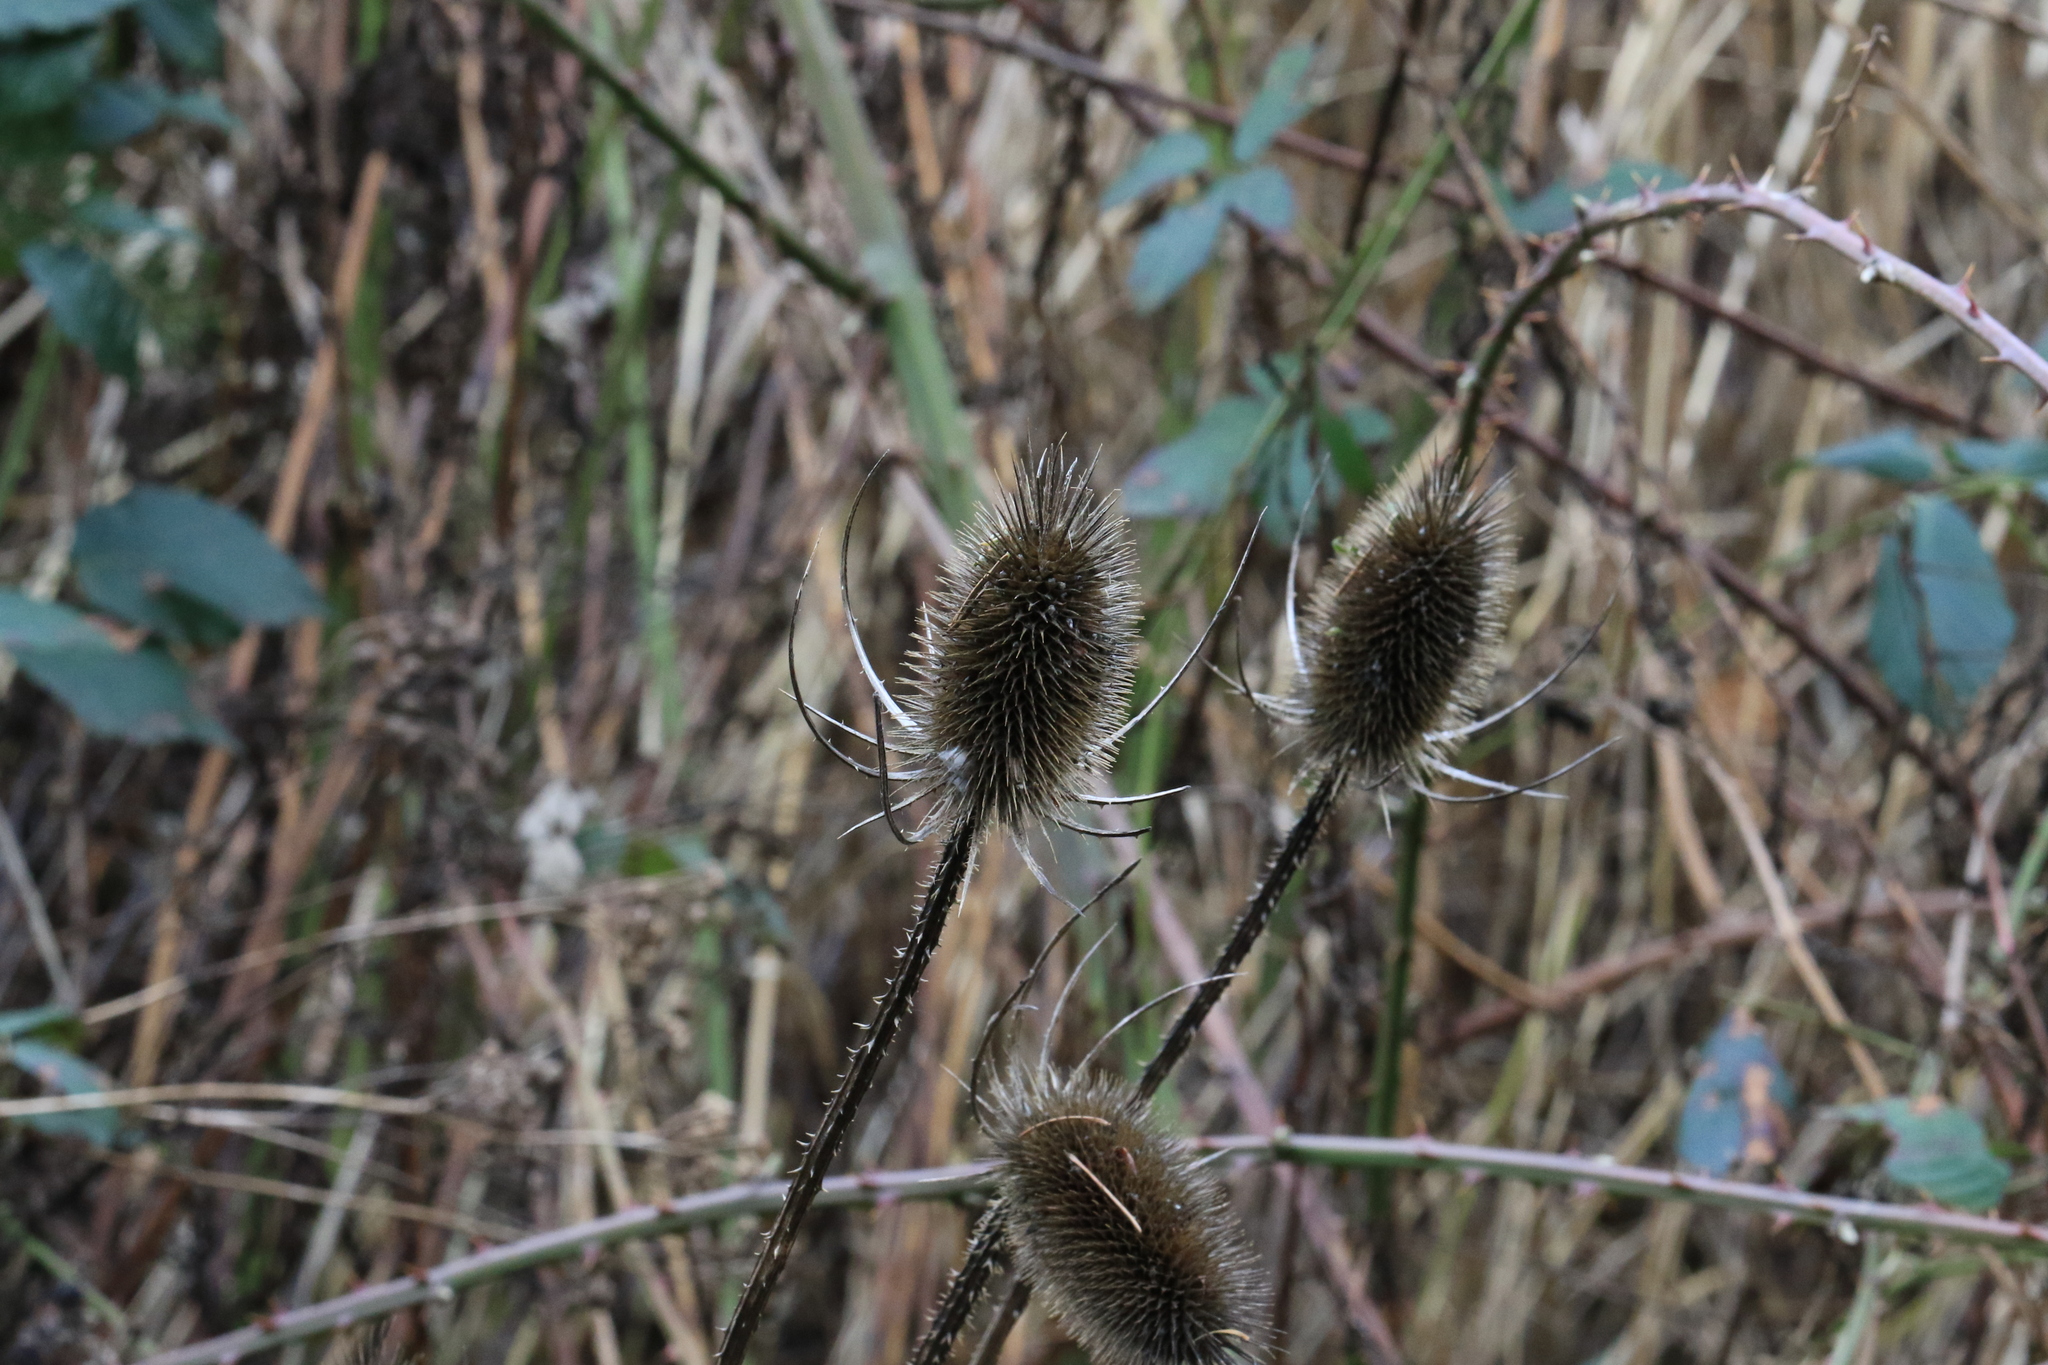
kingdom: Plantae
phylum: Tracheophyta
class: Magnoliopsida
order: Dipsacales
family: Caprifoliaceae
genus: Dipsacus
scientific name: Dipsacus fullonum
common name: Teasel
